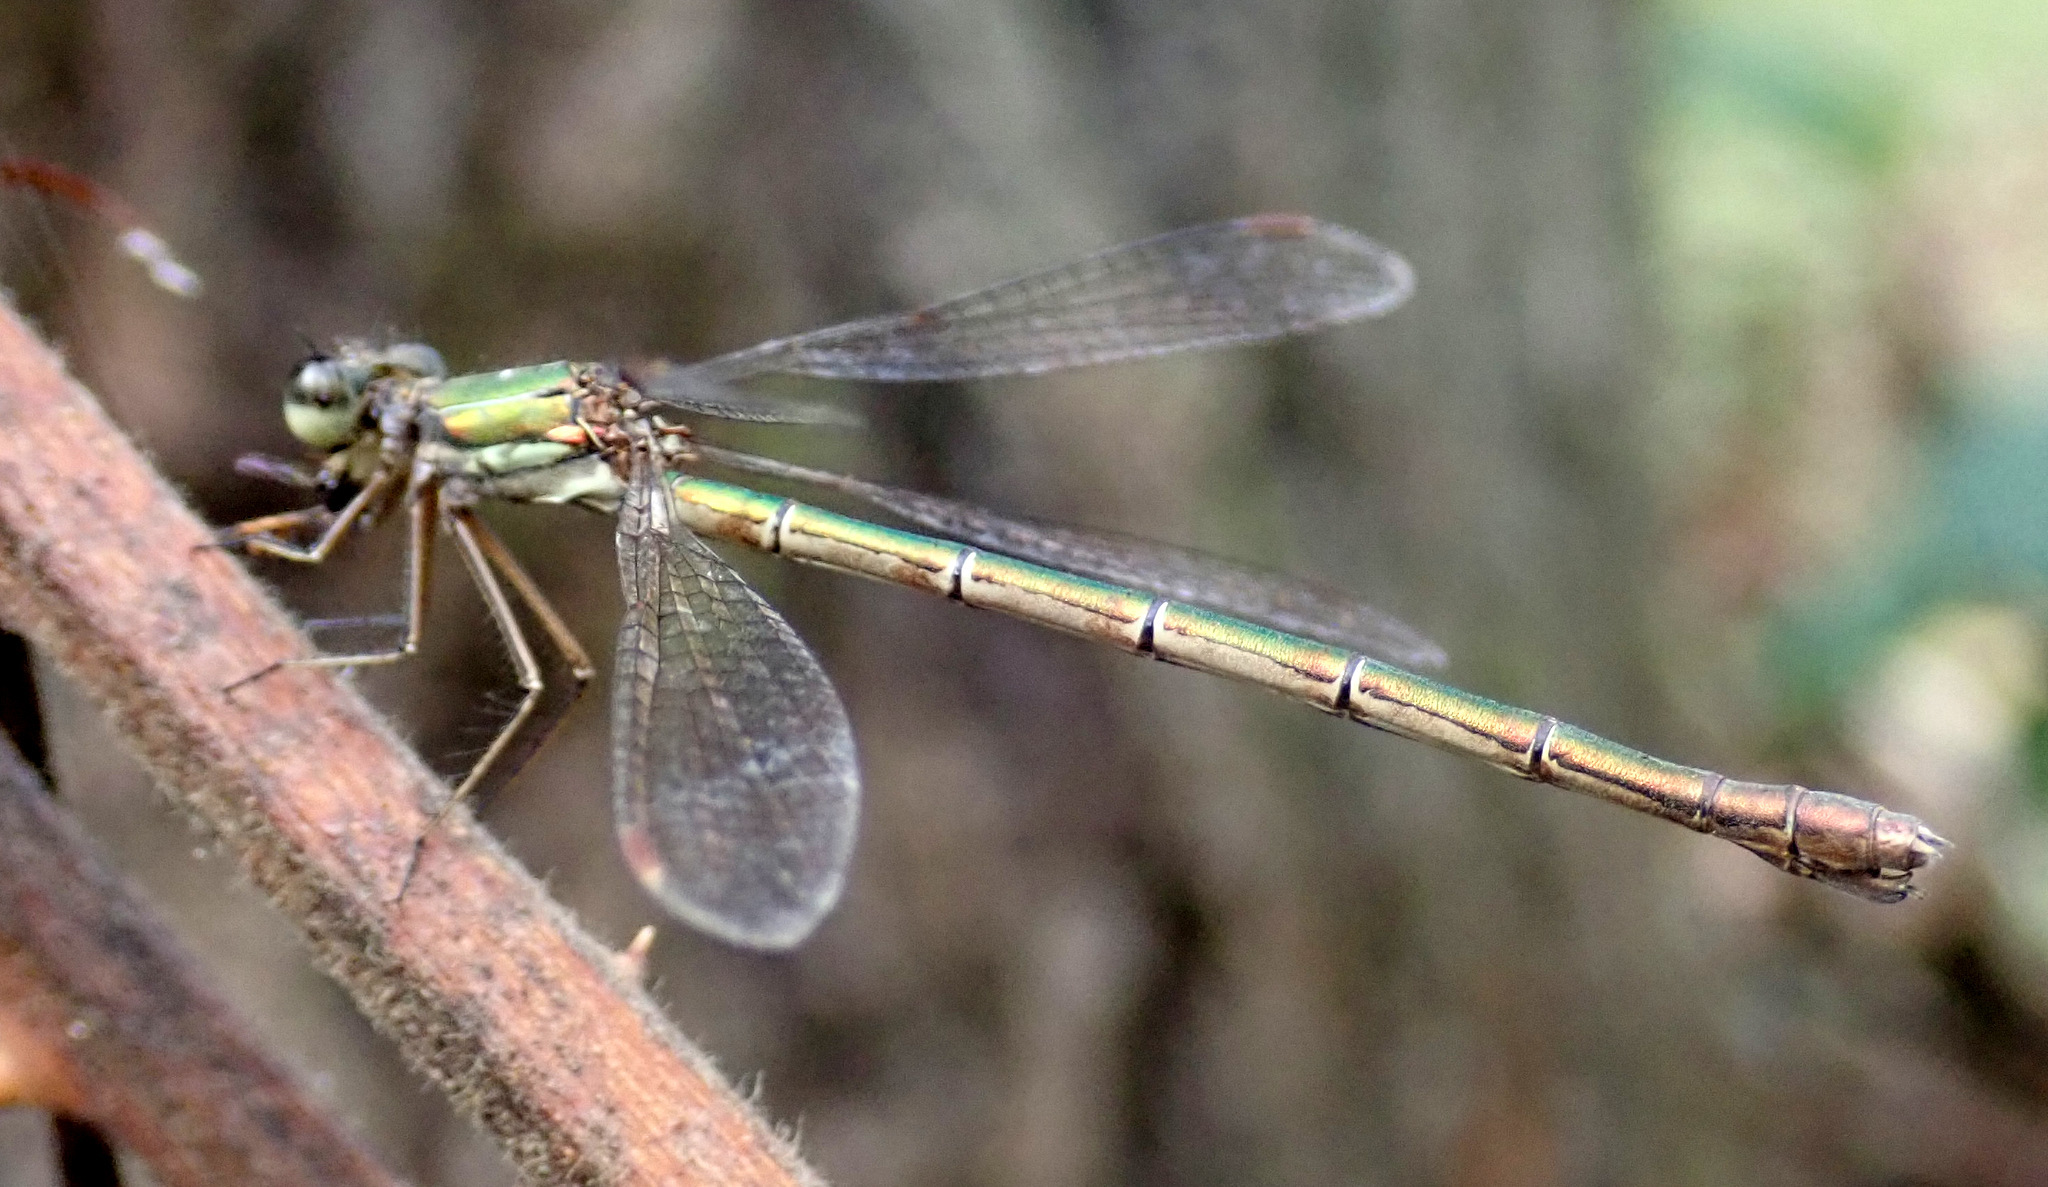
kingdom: Animalia
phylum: Arthropoda
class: Insecta
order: Odonata
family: Lestidae
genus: Lestes
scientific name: Lestes virens
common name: Small emerald spreadwing
